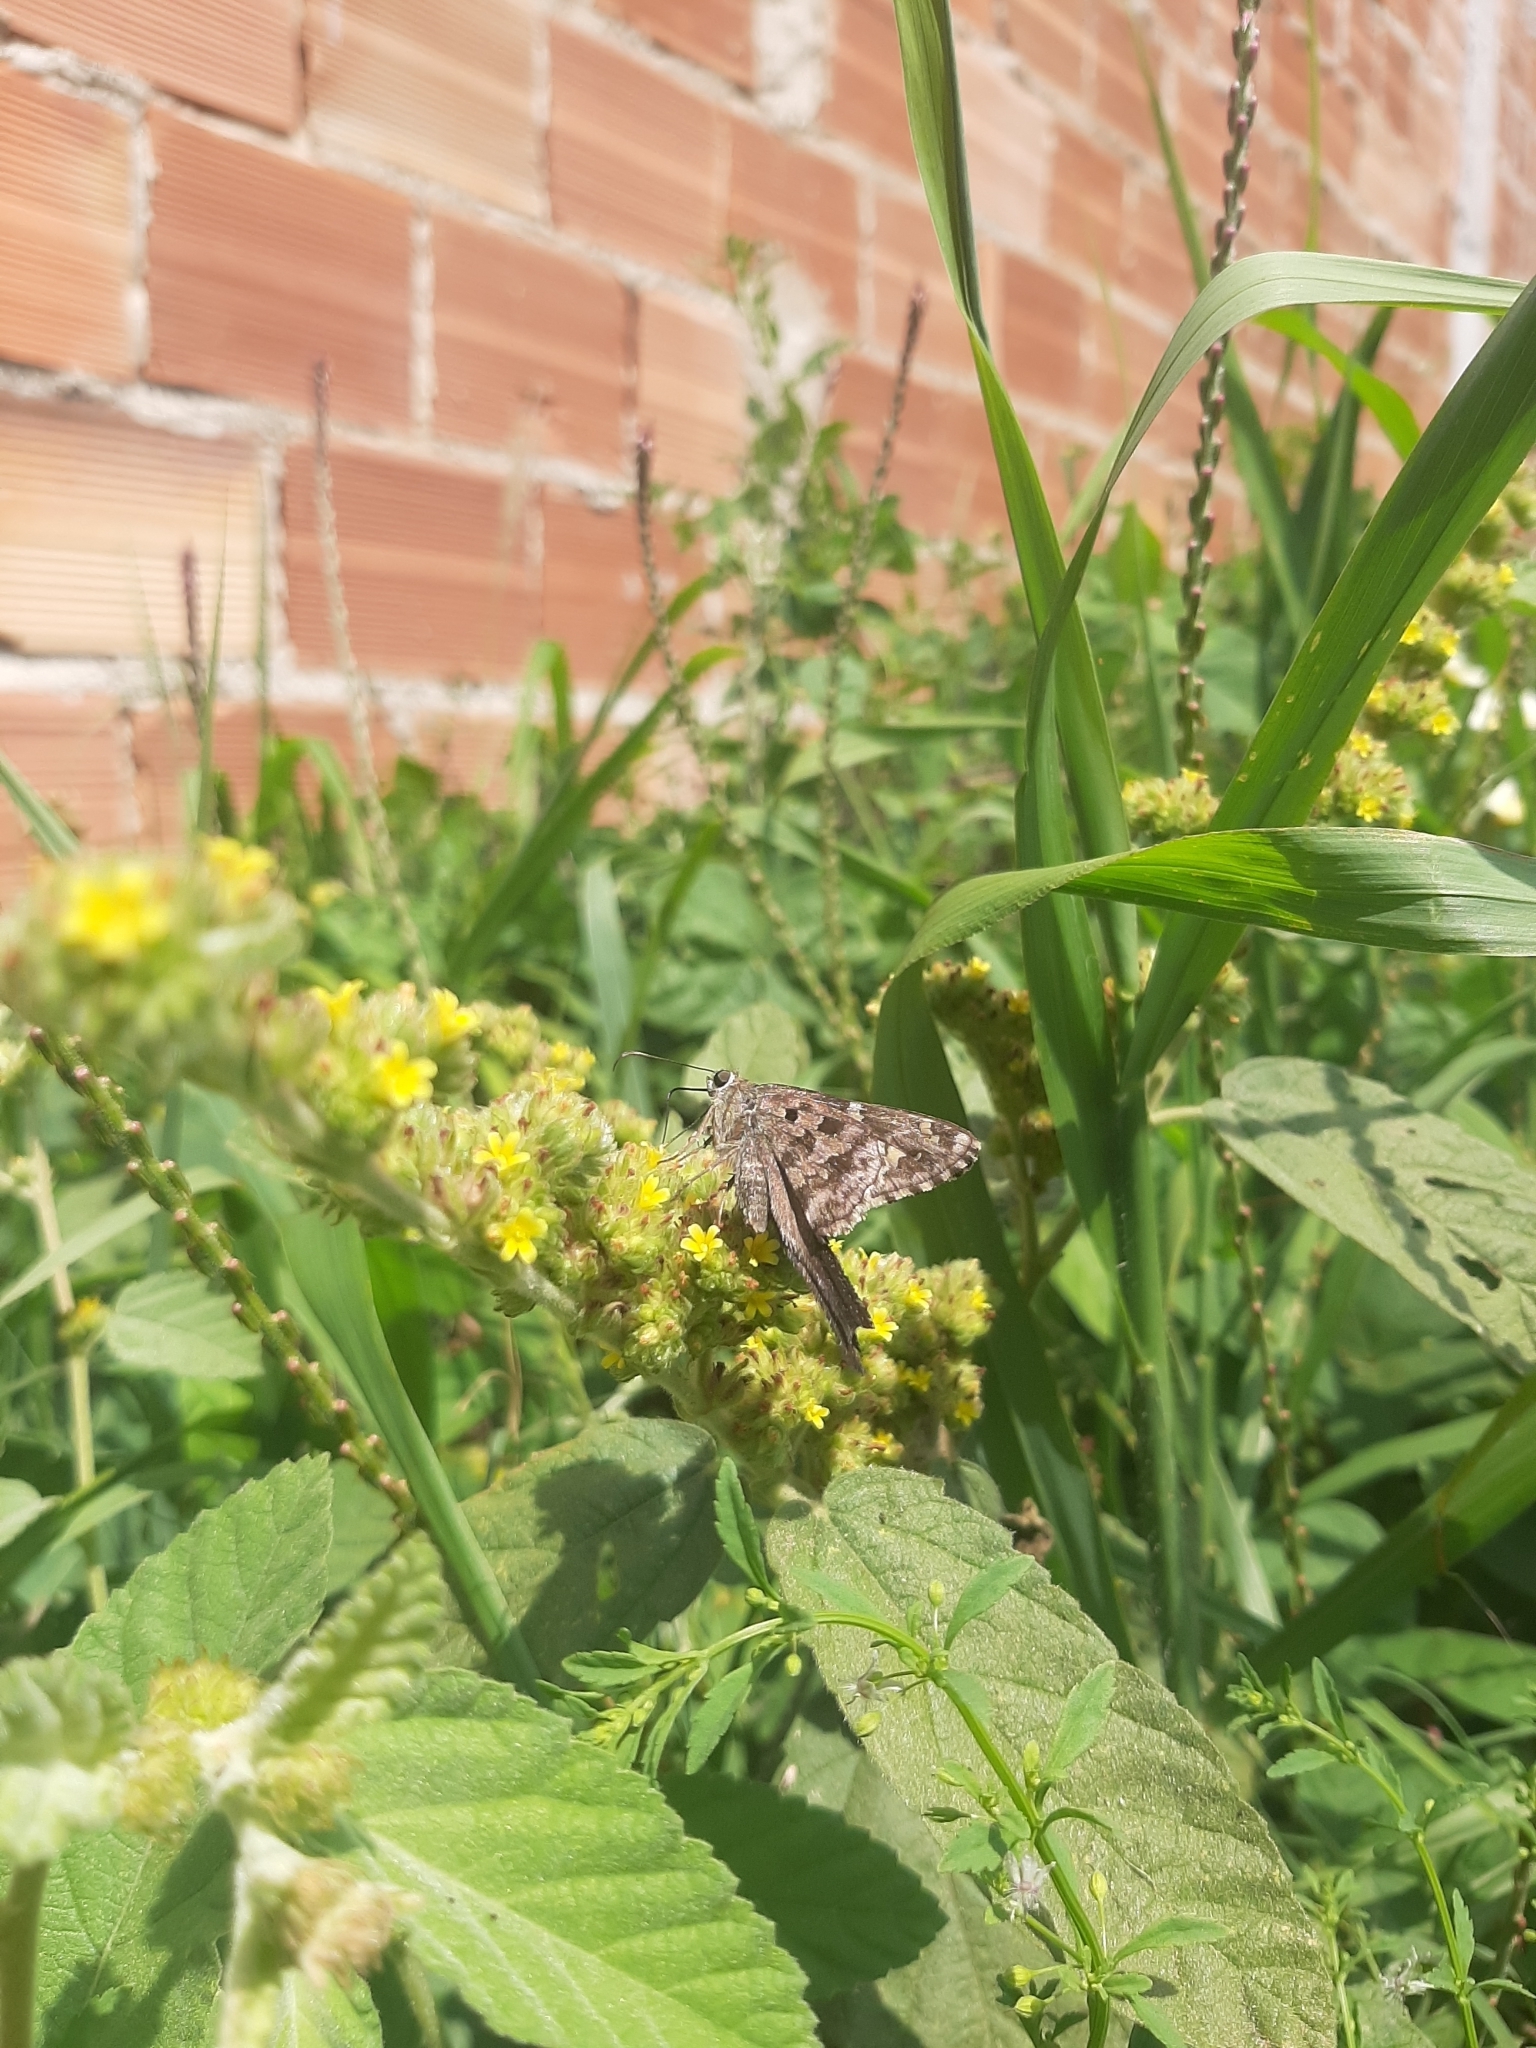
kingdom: Animalia
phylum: Arthropoda
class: Insecta
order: Lepidoptera
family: Hesperiidae
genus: Thorybes
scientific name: Thorybes
